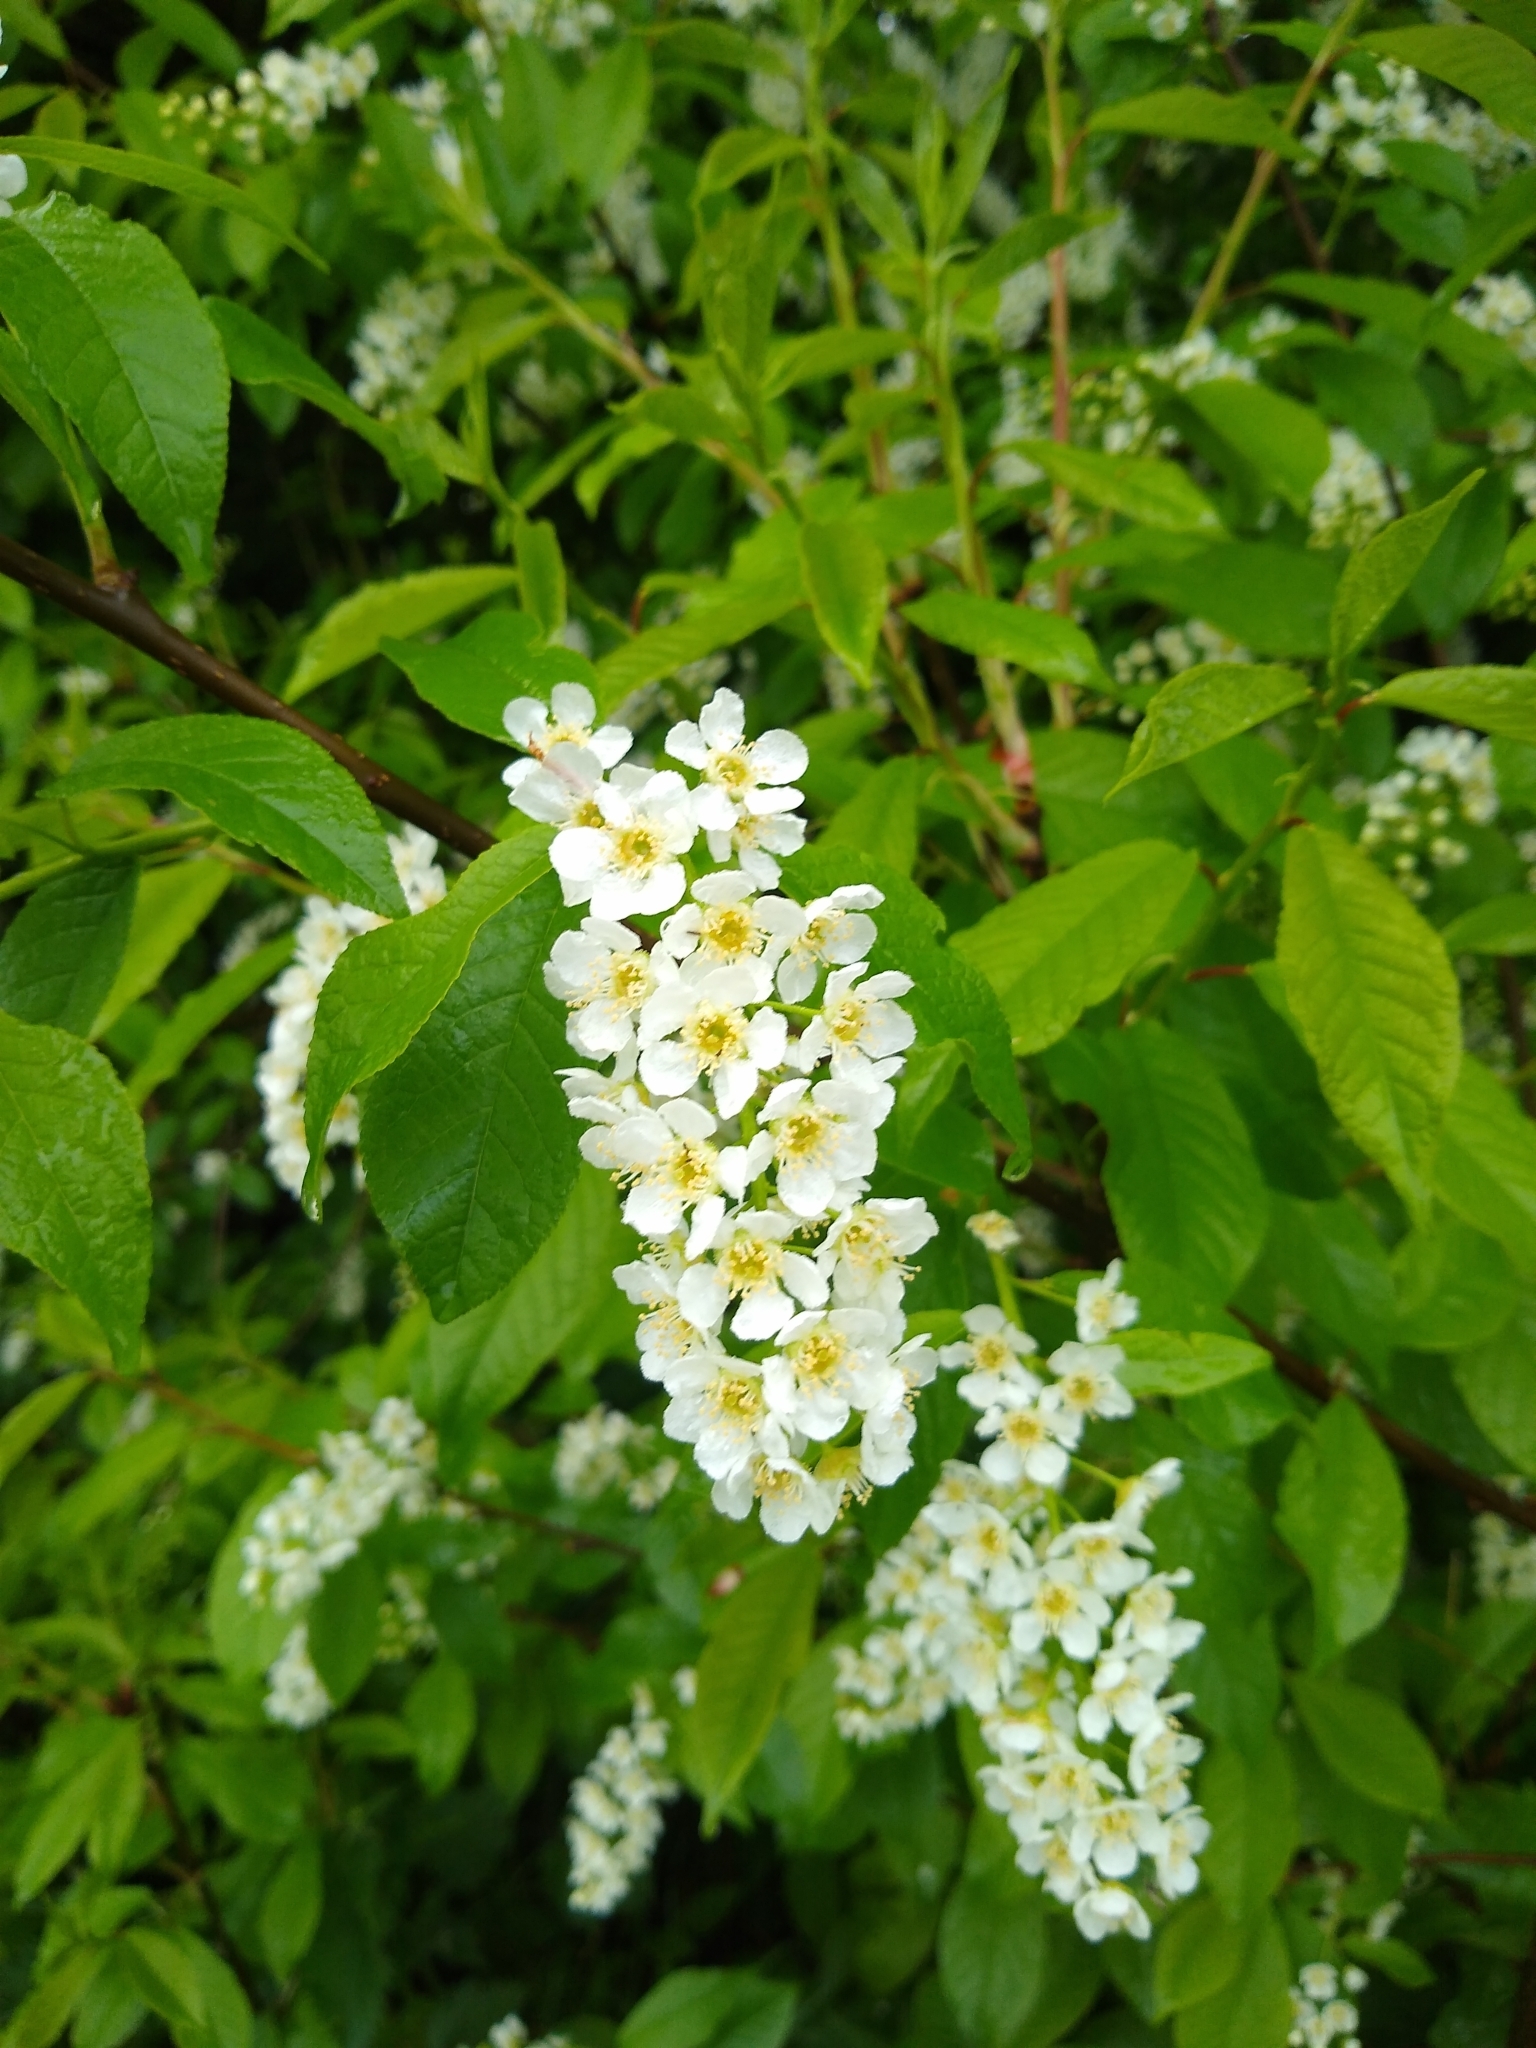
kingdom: Plantae
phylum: Tracheophyta
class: Magnoliopsida
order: Rosales
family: Rosaceae
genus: Prunus
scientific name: Prunus padus
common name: Bird cherry
